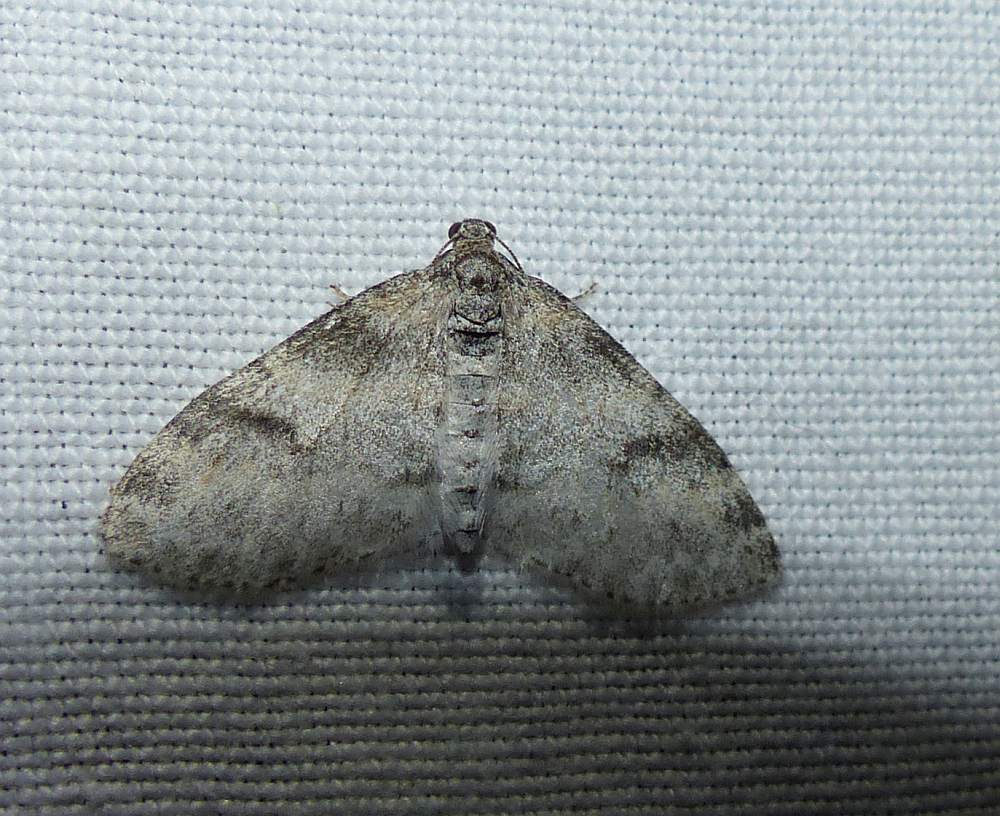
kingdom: Animalia
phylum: Arthropoda
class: Insecta
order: Lepidoptera
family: Geometridae
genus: Lobophora
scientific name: Lobophora nivigerata
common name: Powdered bigwing
